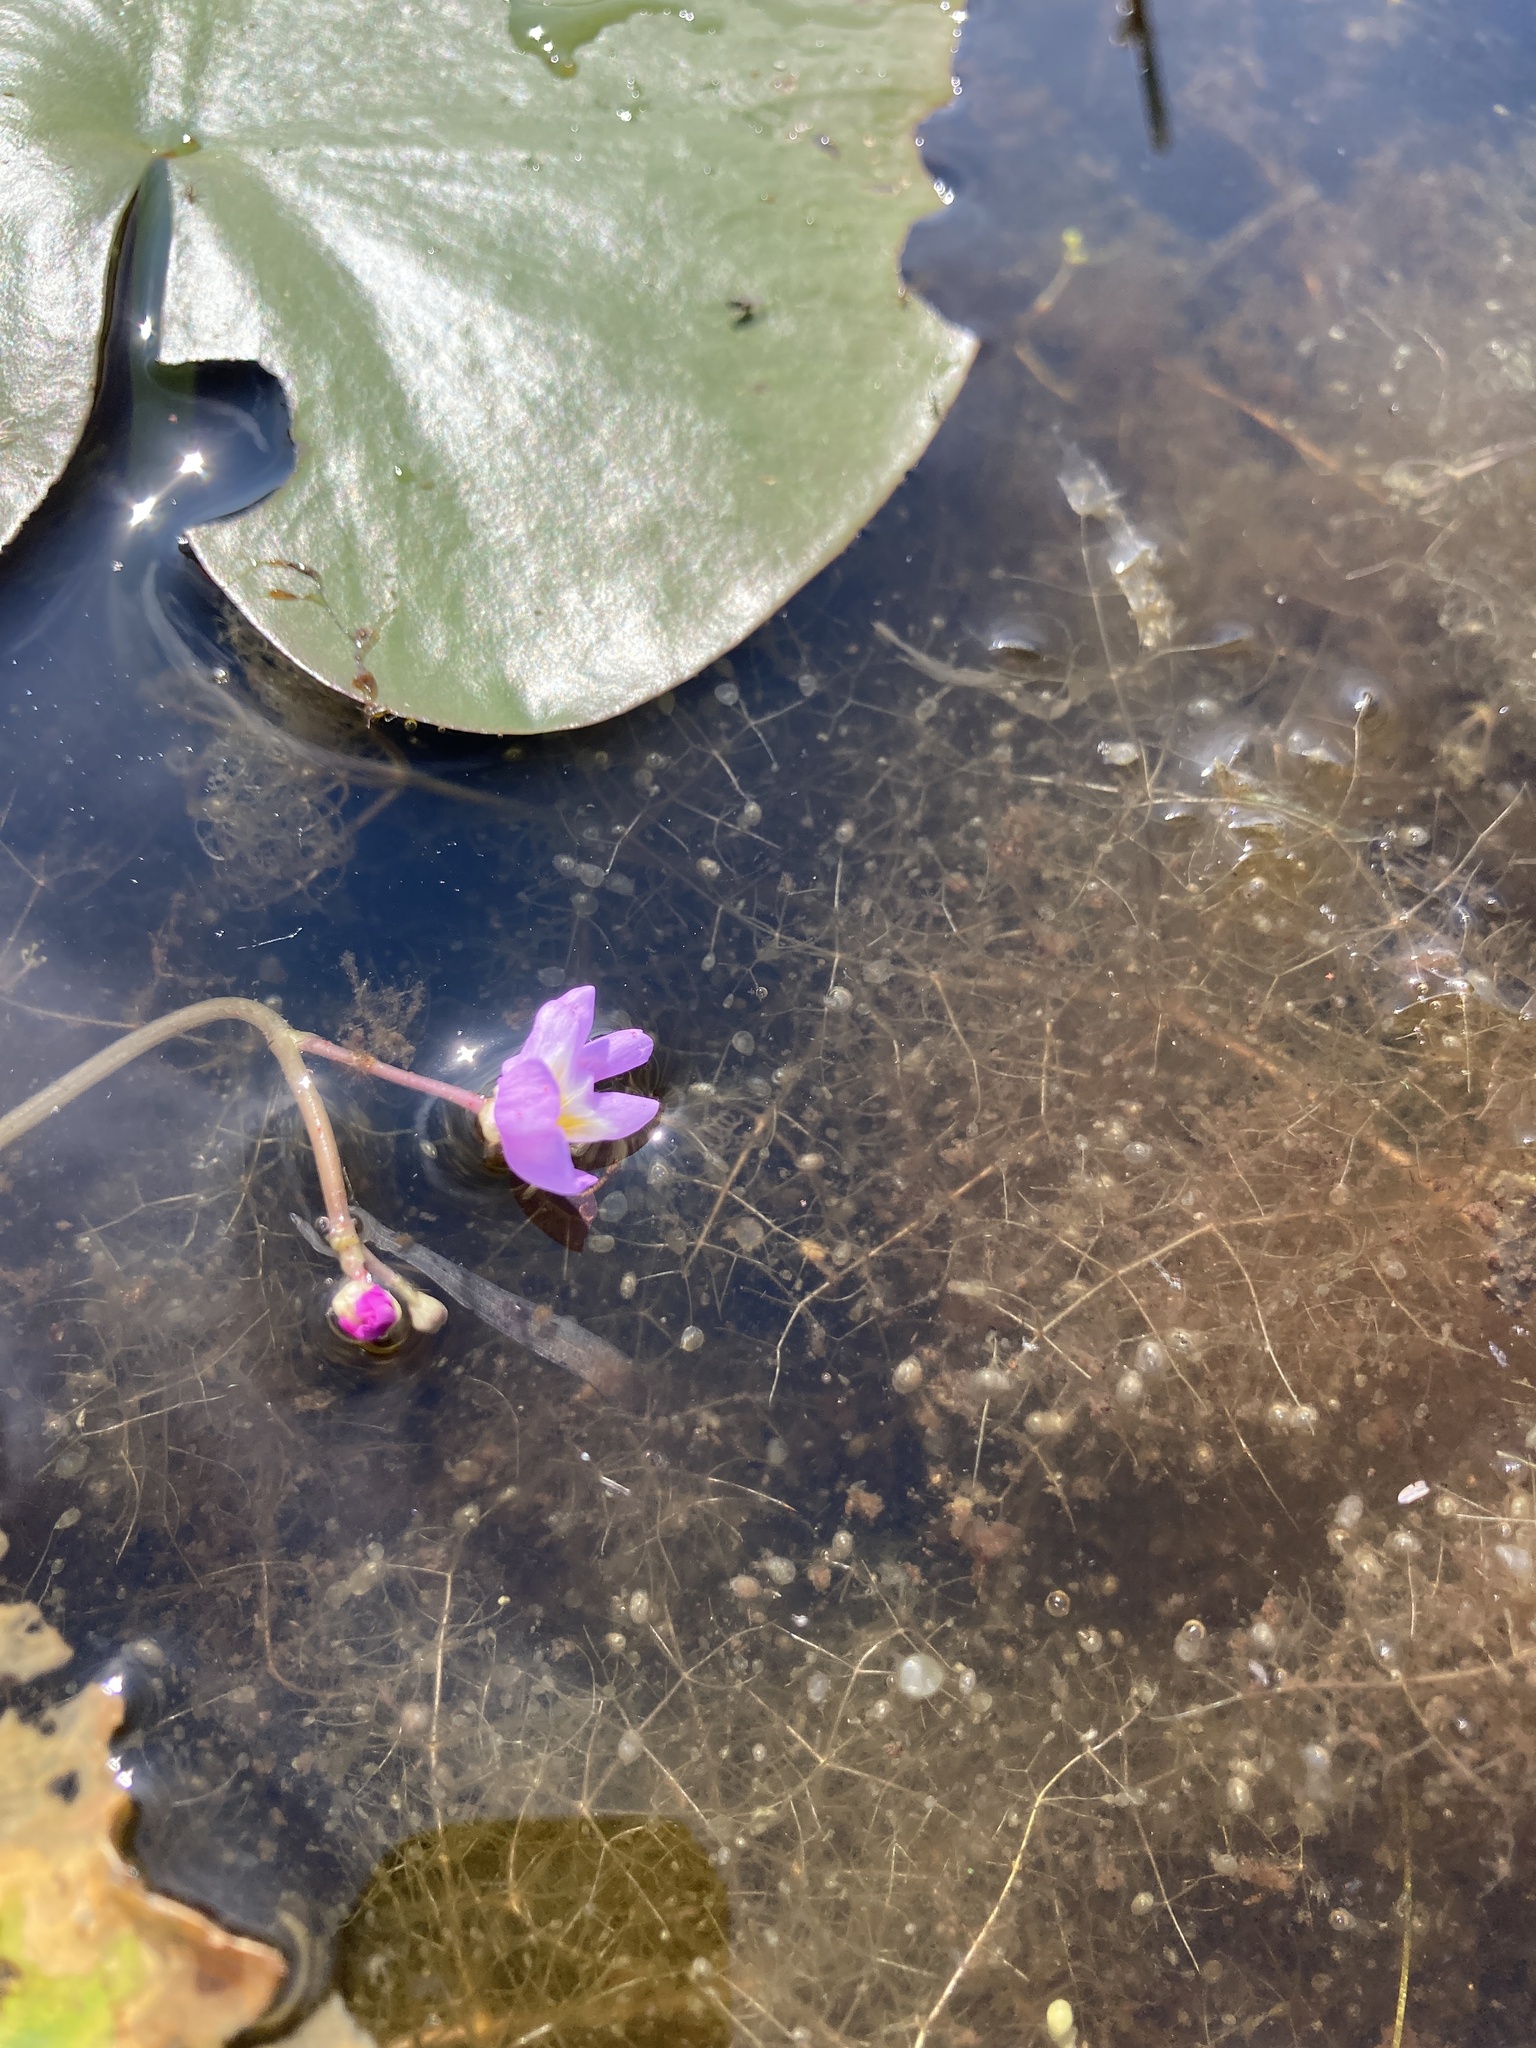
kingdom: Plantae
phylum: Tracheophyta
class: Magnoliopsida
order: Lamiales
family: Lentibulariaceae
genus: Utricularia
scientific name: Utricularia purpurea
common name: Eastern purple bladderwort
